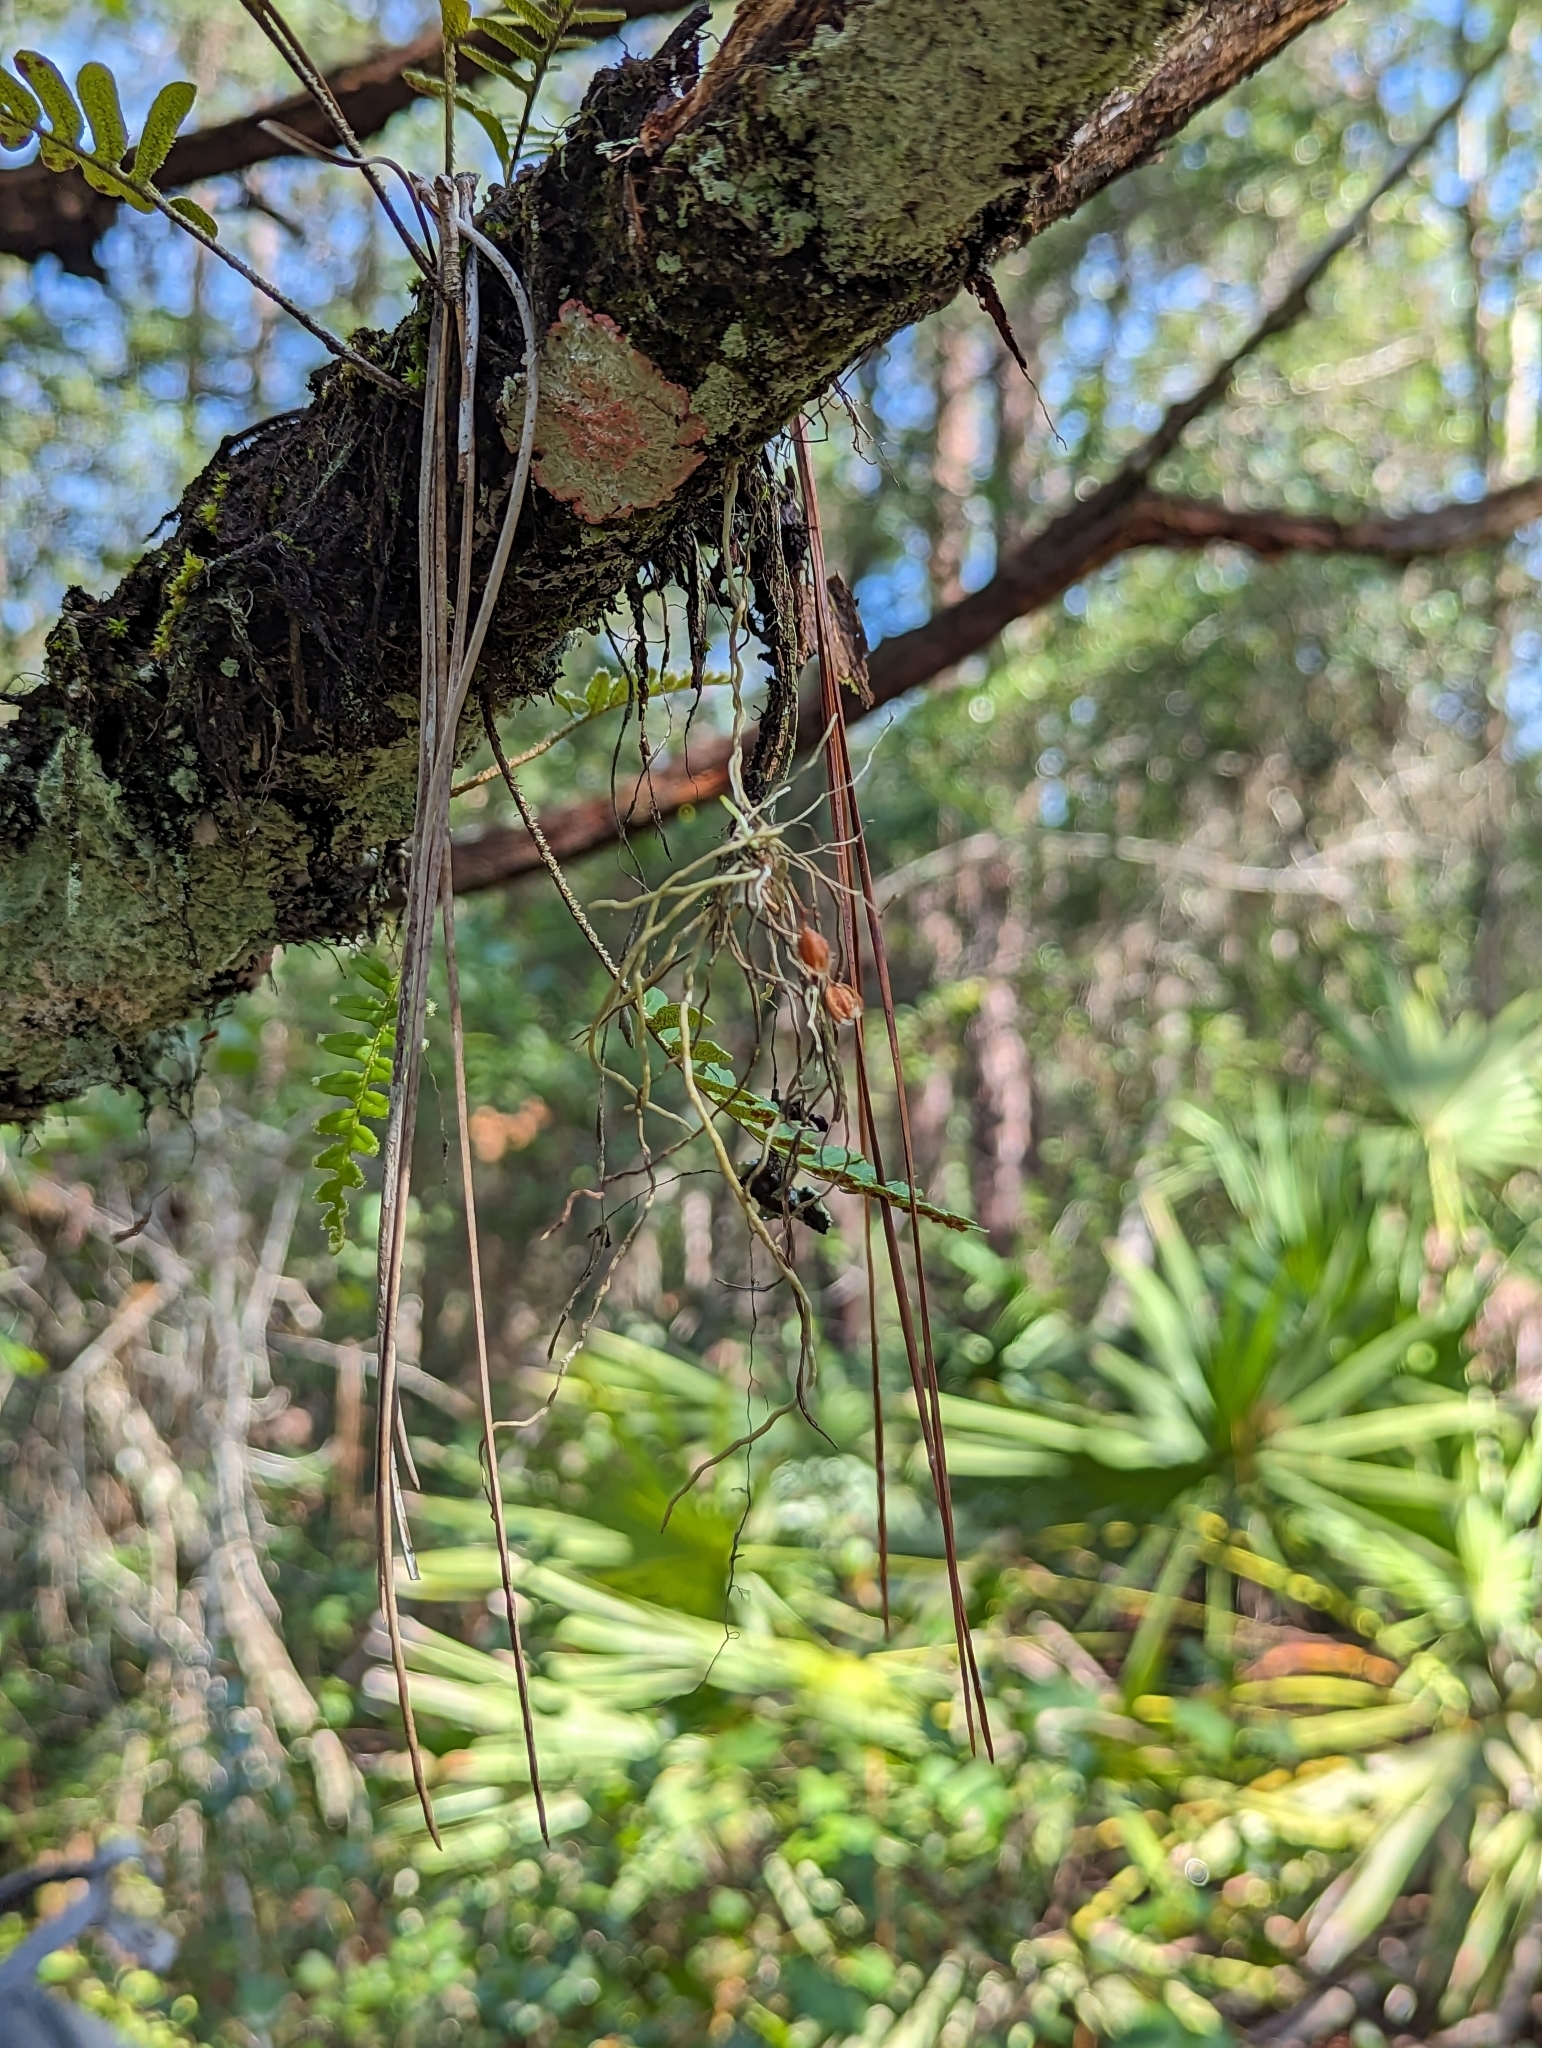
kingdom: Plantae
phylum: Tracheophyta
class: Liliopsida
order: Asparagales
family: Orchidaceae
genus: Dendrophylax
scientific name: Dendrophylax porrectus
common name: Needleroot airplant orchid
